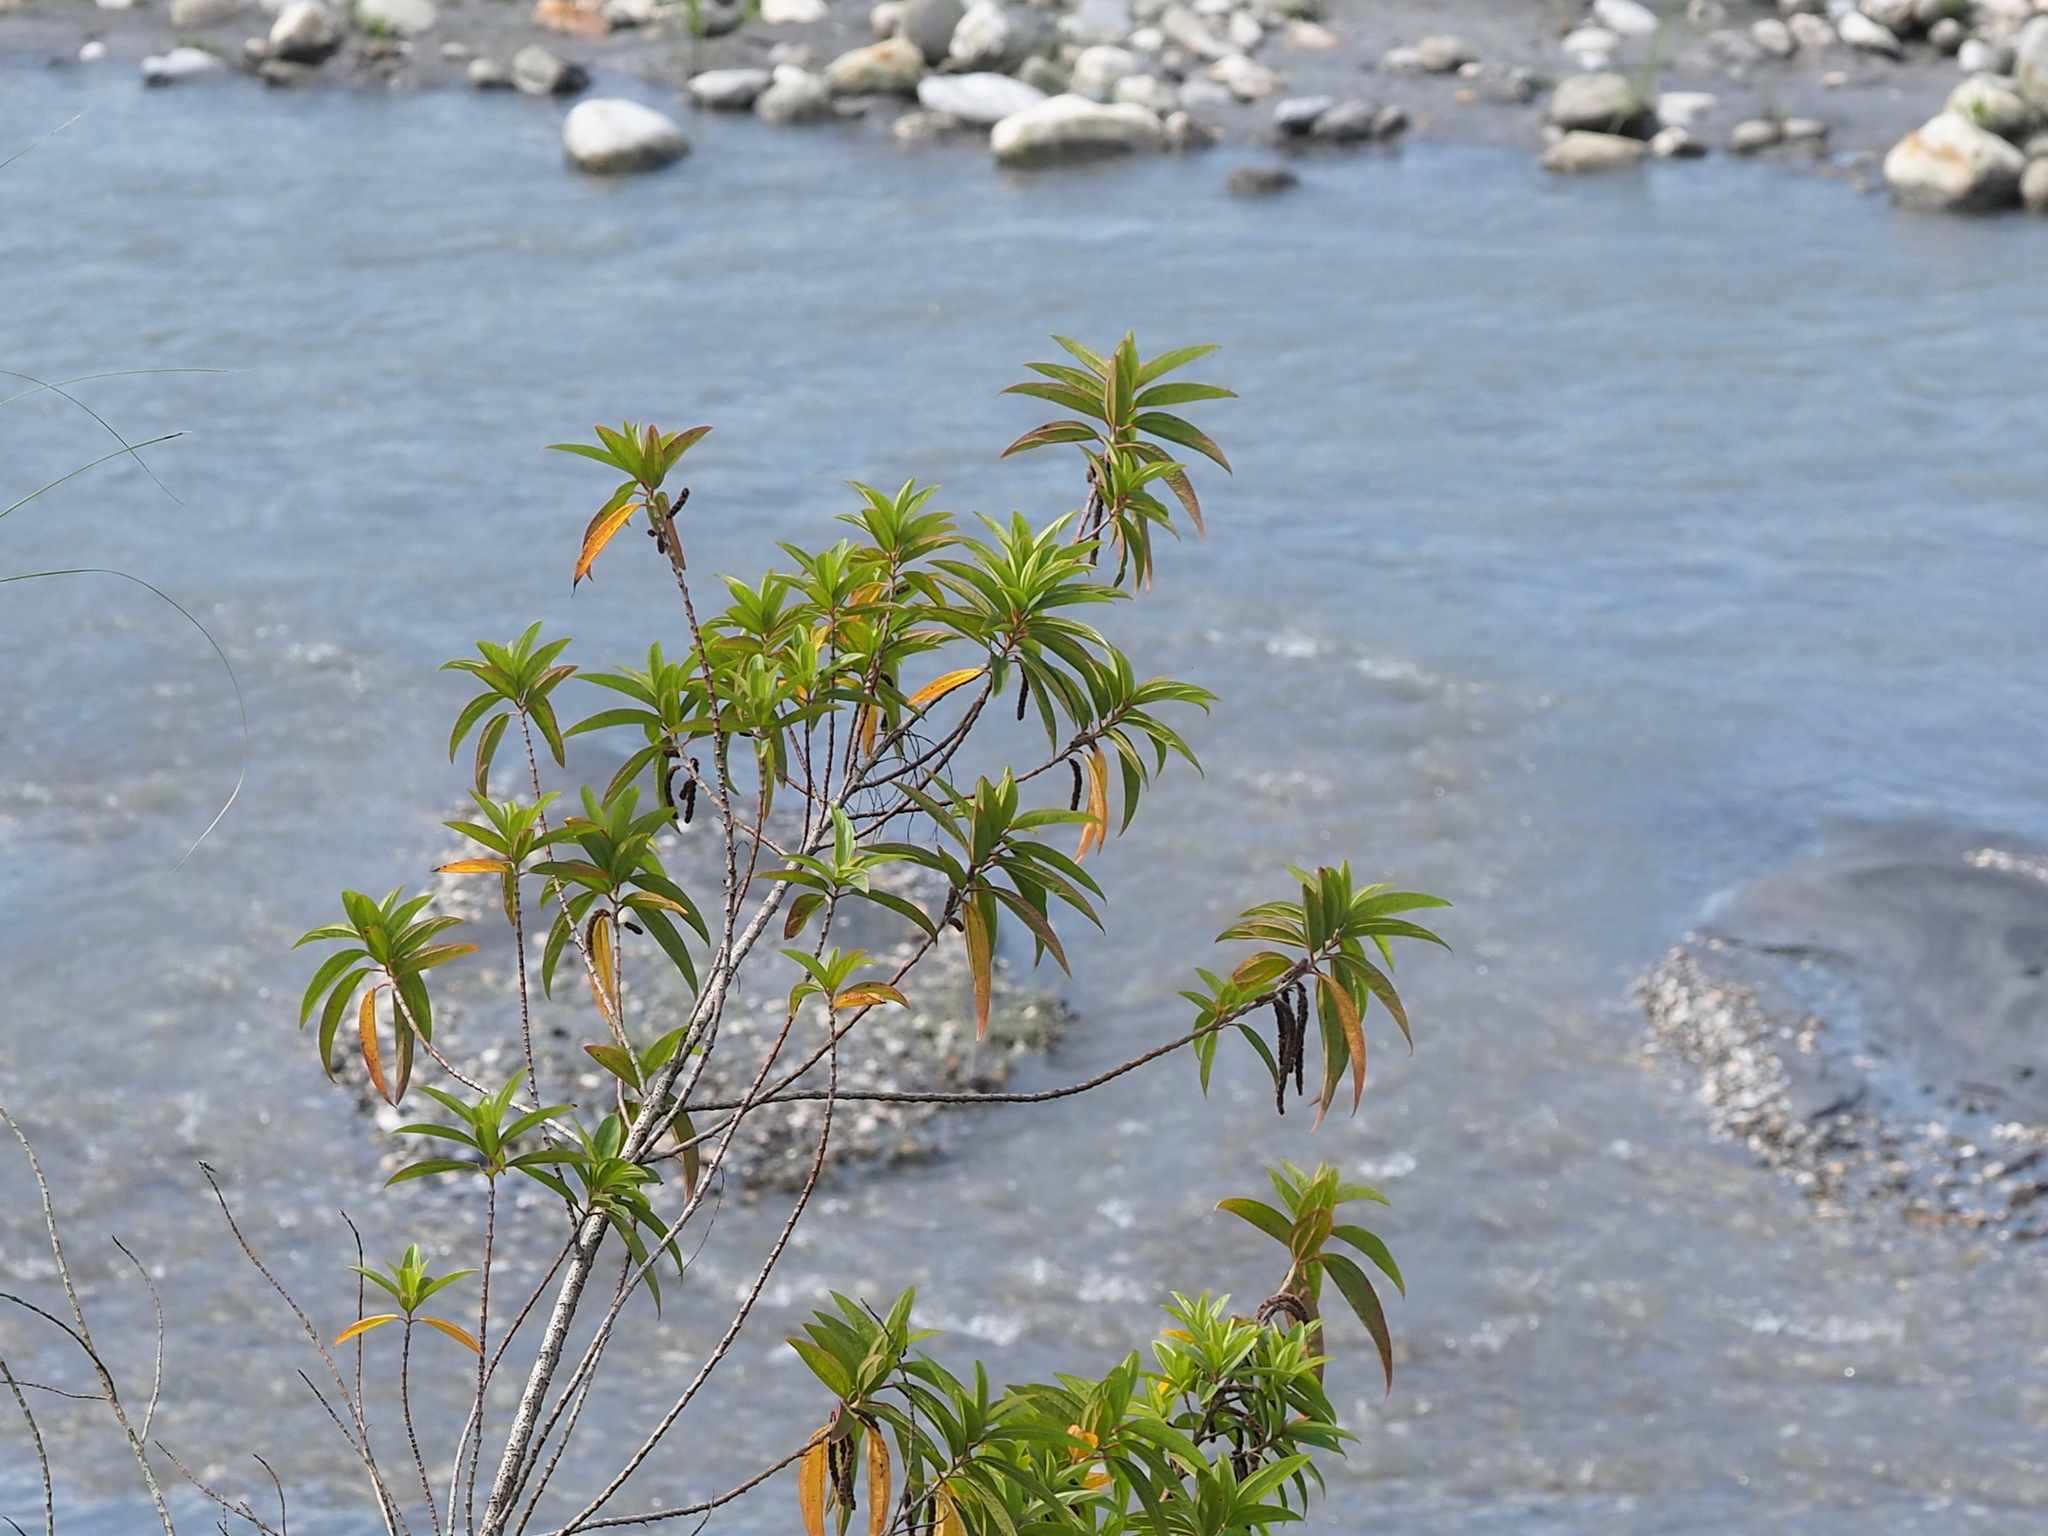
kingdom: Plantae
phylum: Tracheophyta
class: Magnoliopsida
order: Rosales
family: Urticaceae
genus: Boehmeria
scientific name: Boehmeria densiflora
